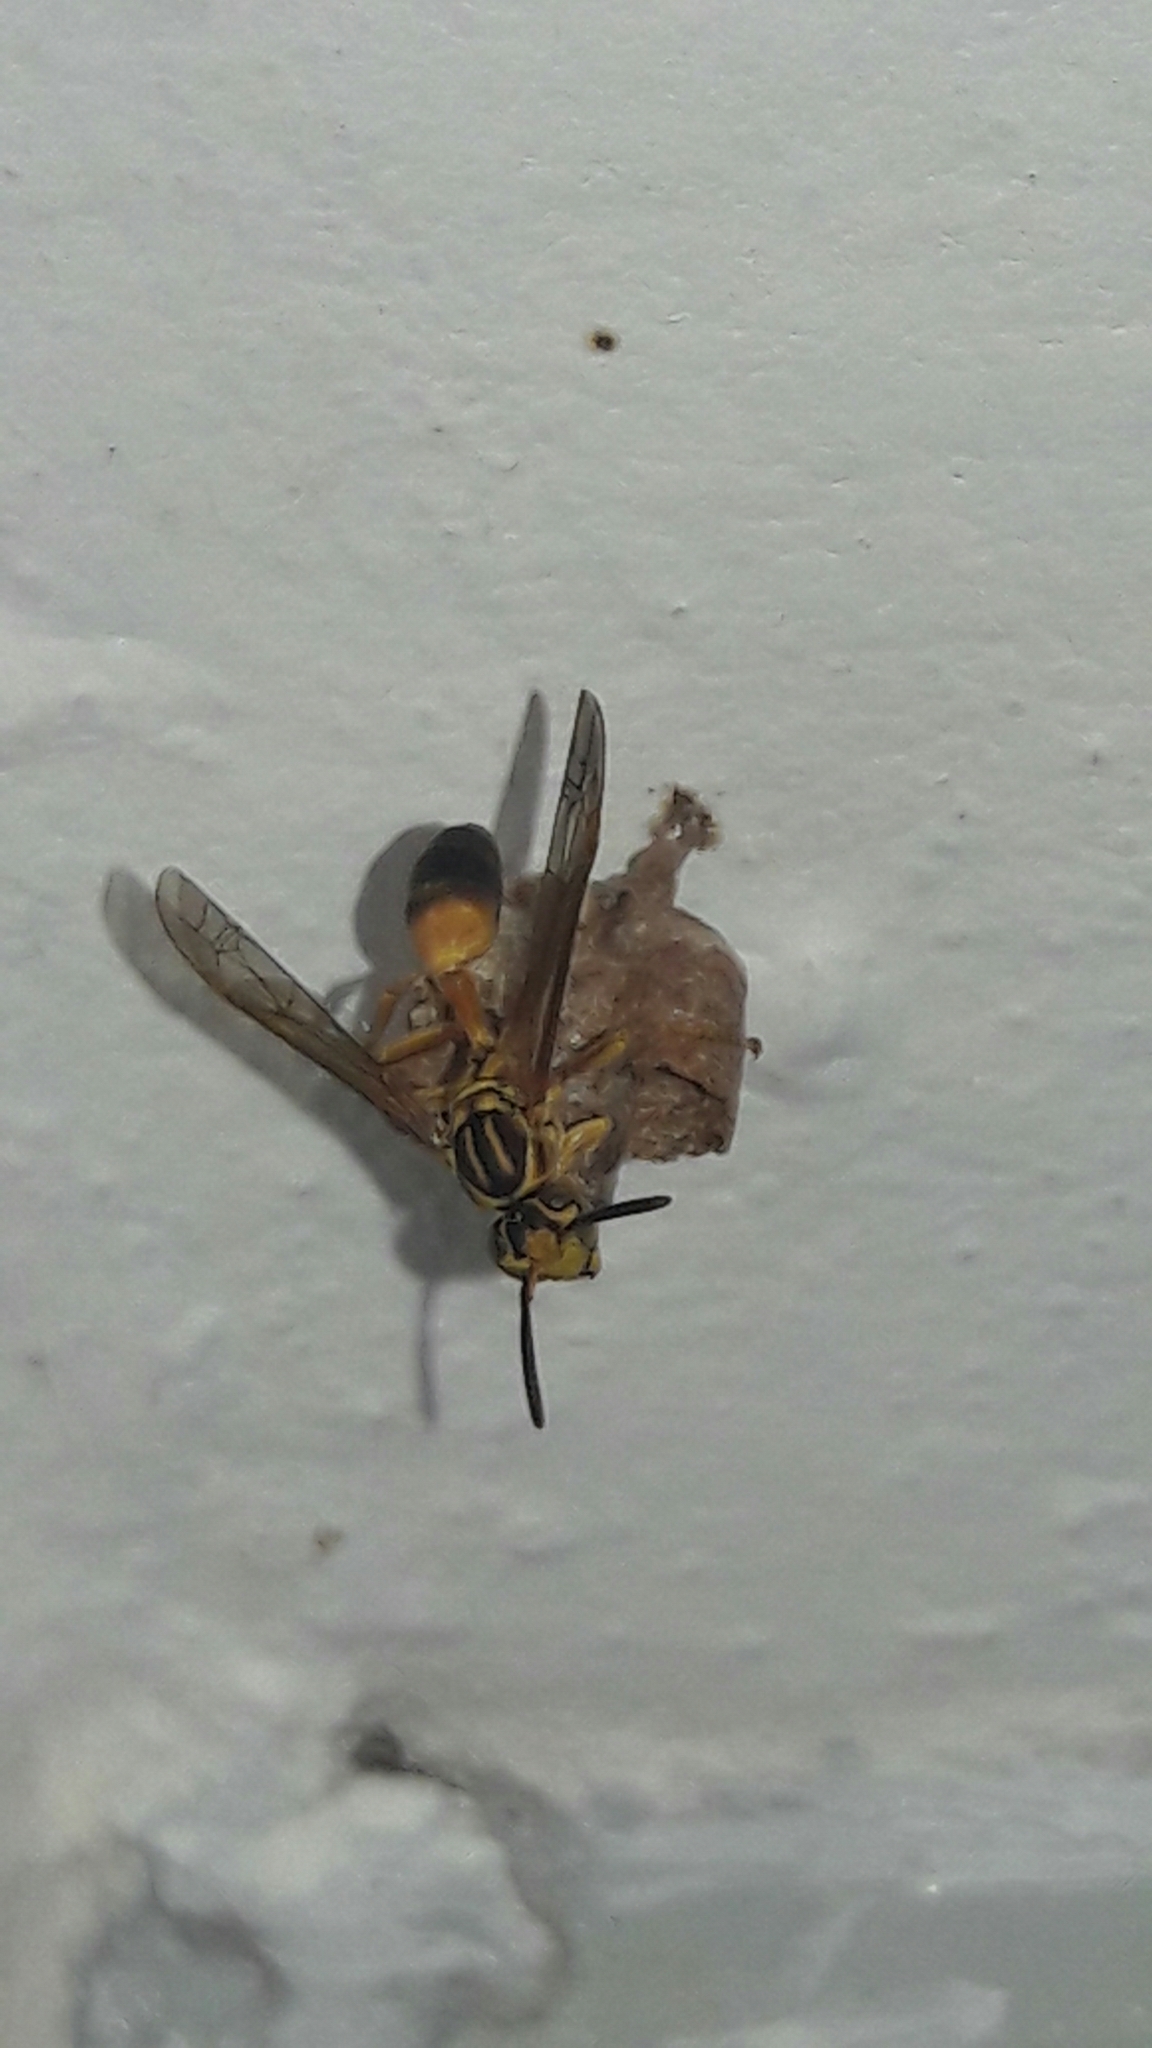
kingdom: Animalia
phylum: Arthropoda
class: Insecta
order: Hymenoptera
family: Vespidae
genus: Mischocyttarus
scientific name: Mischocyttarus cerberus
